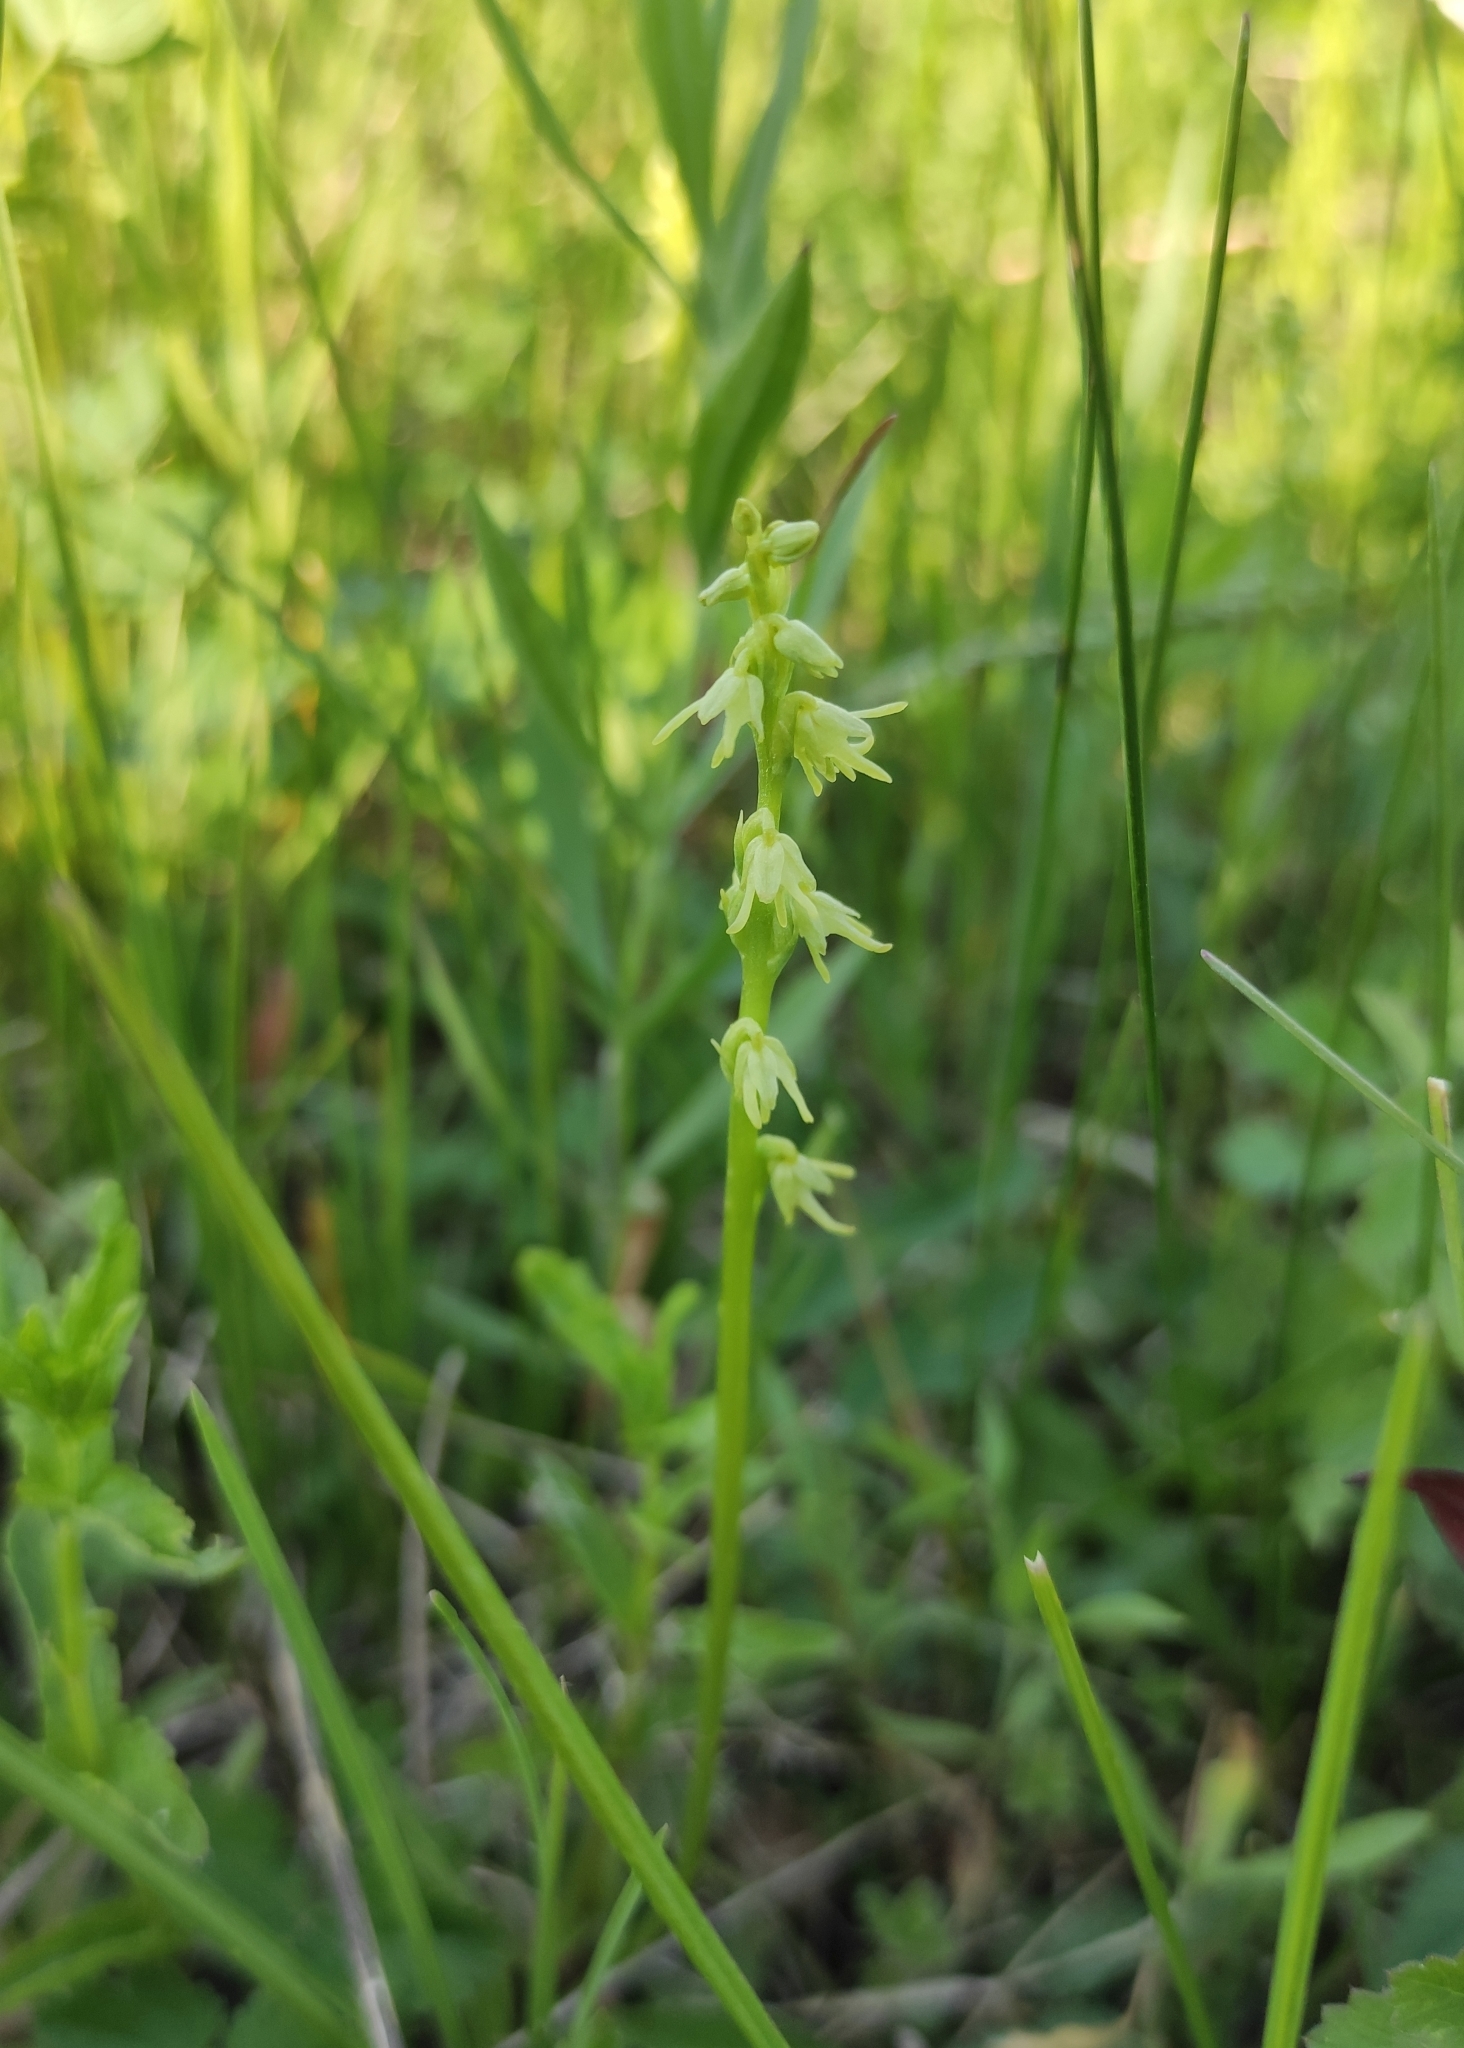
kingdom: Plantae
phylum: Tracheophyta
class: Liliopsida
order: Asparagales
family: Orchidaceae
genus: Herminium
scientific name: Herminium monorchis
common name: Musk orchid
